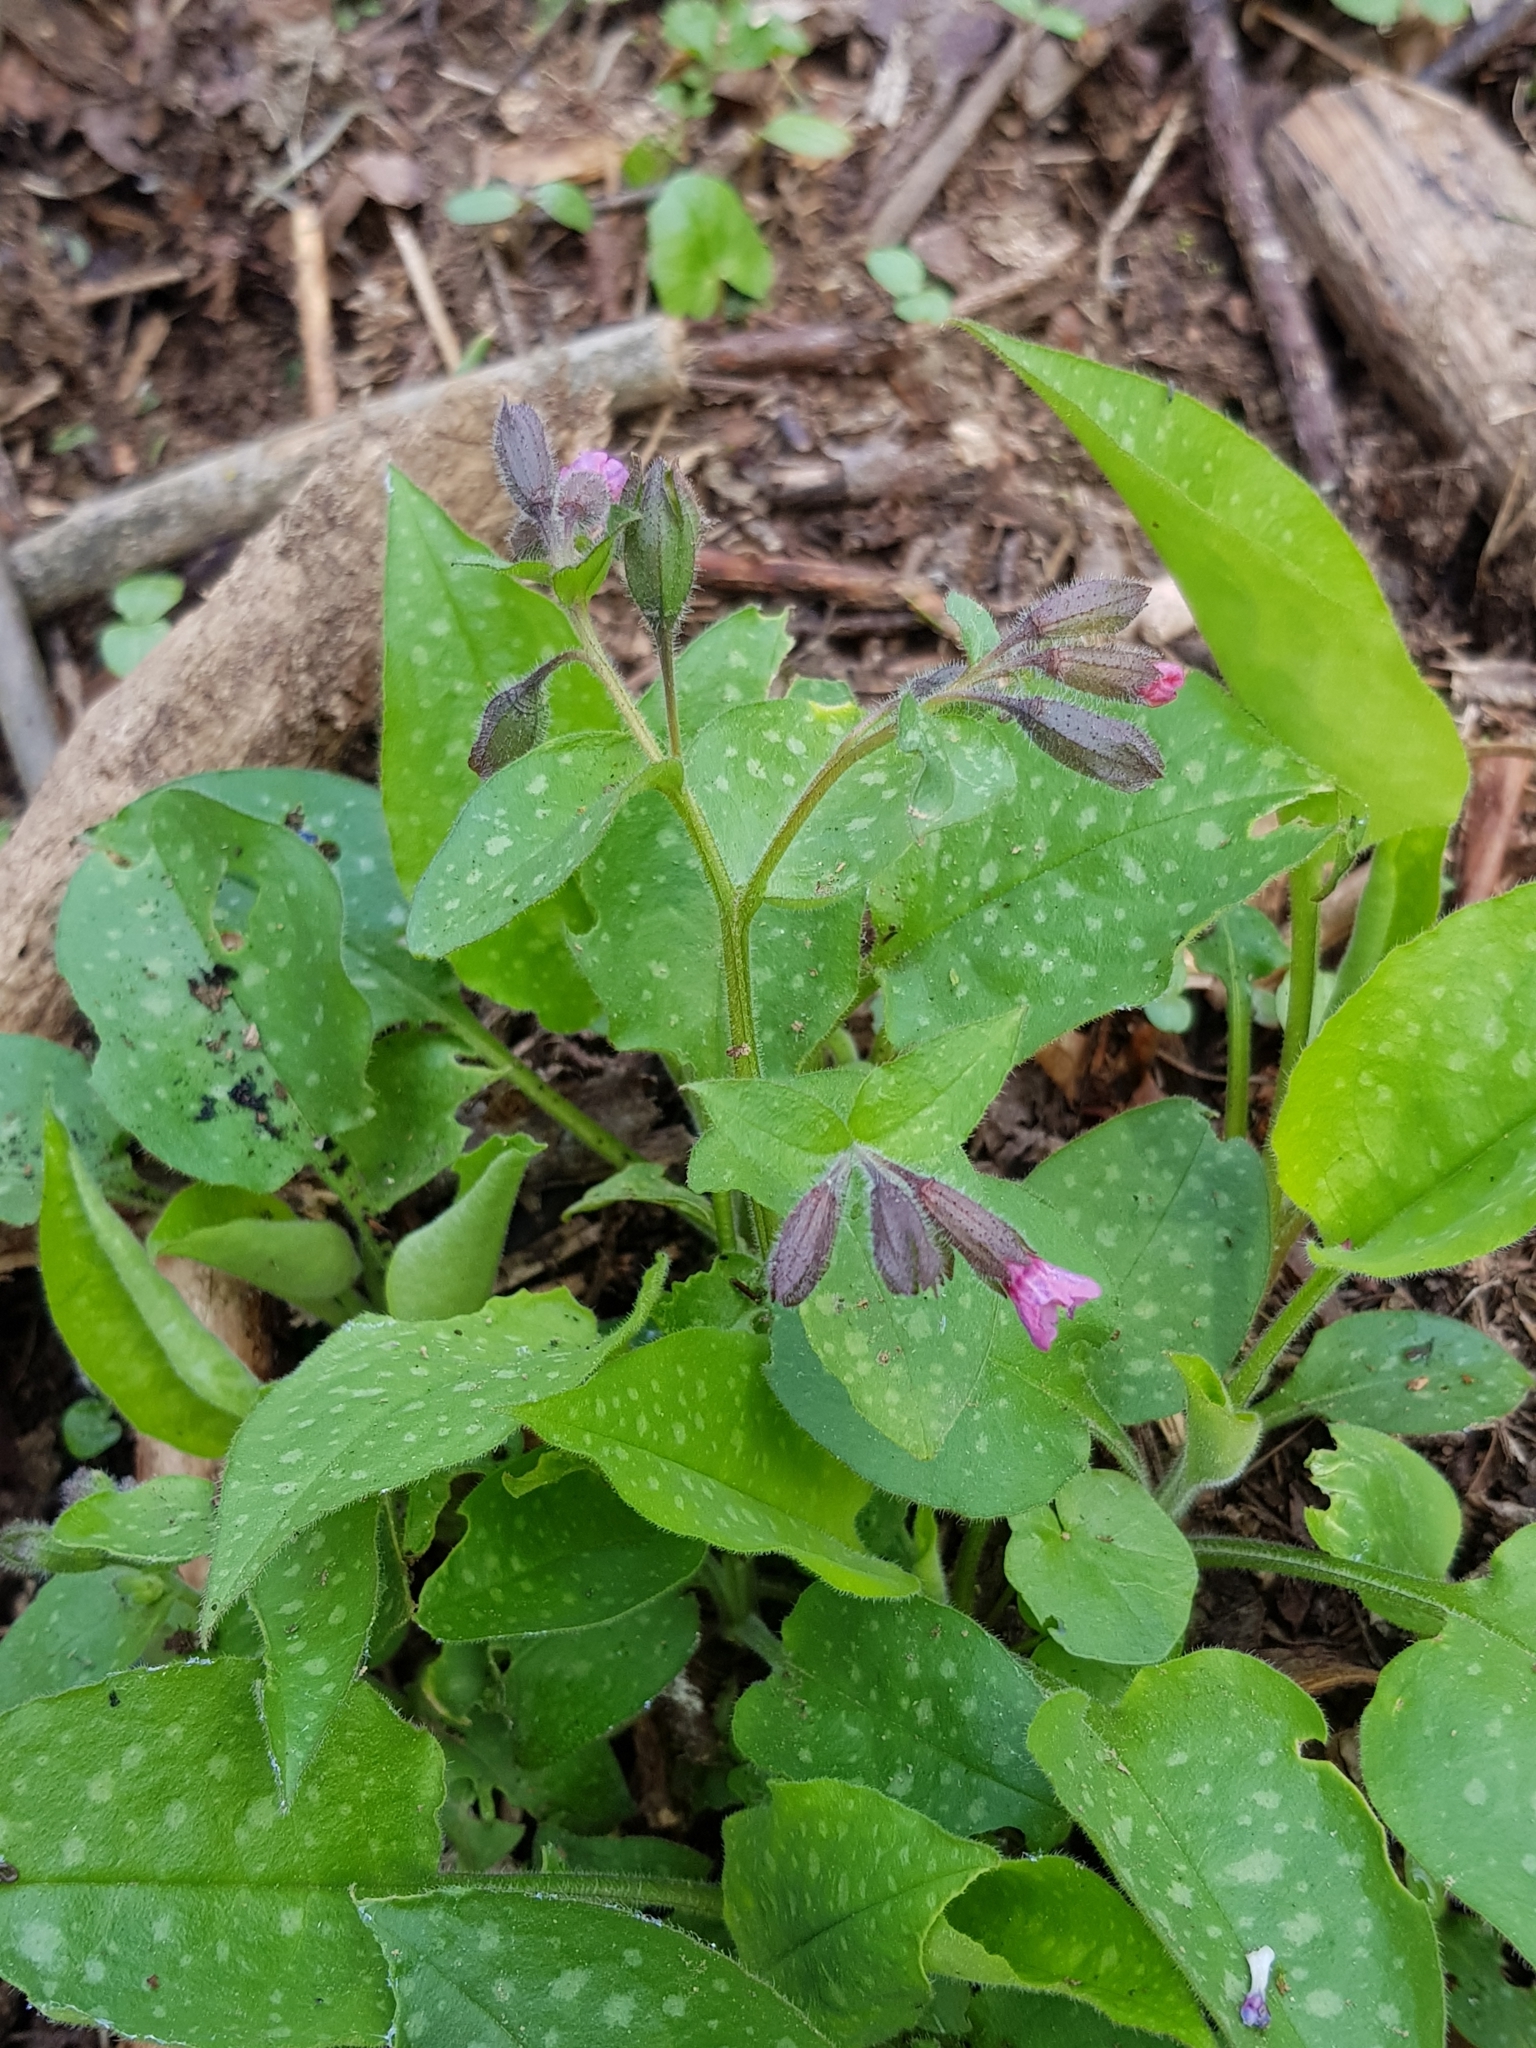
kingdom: Plantae
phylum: Tracheophyta
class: Magnoliopsida
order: Boraginales
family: Boraginaceae
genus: Pulmonaria
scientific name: Pulmonaria officinalis
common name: Lungwort
